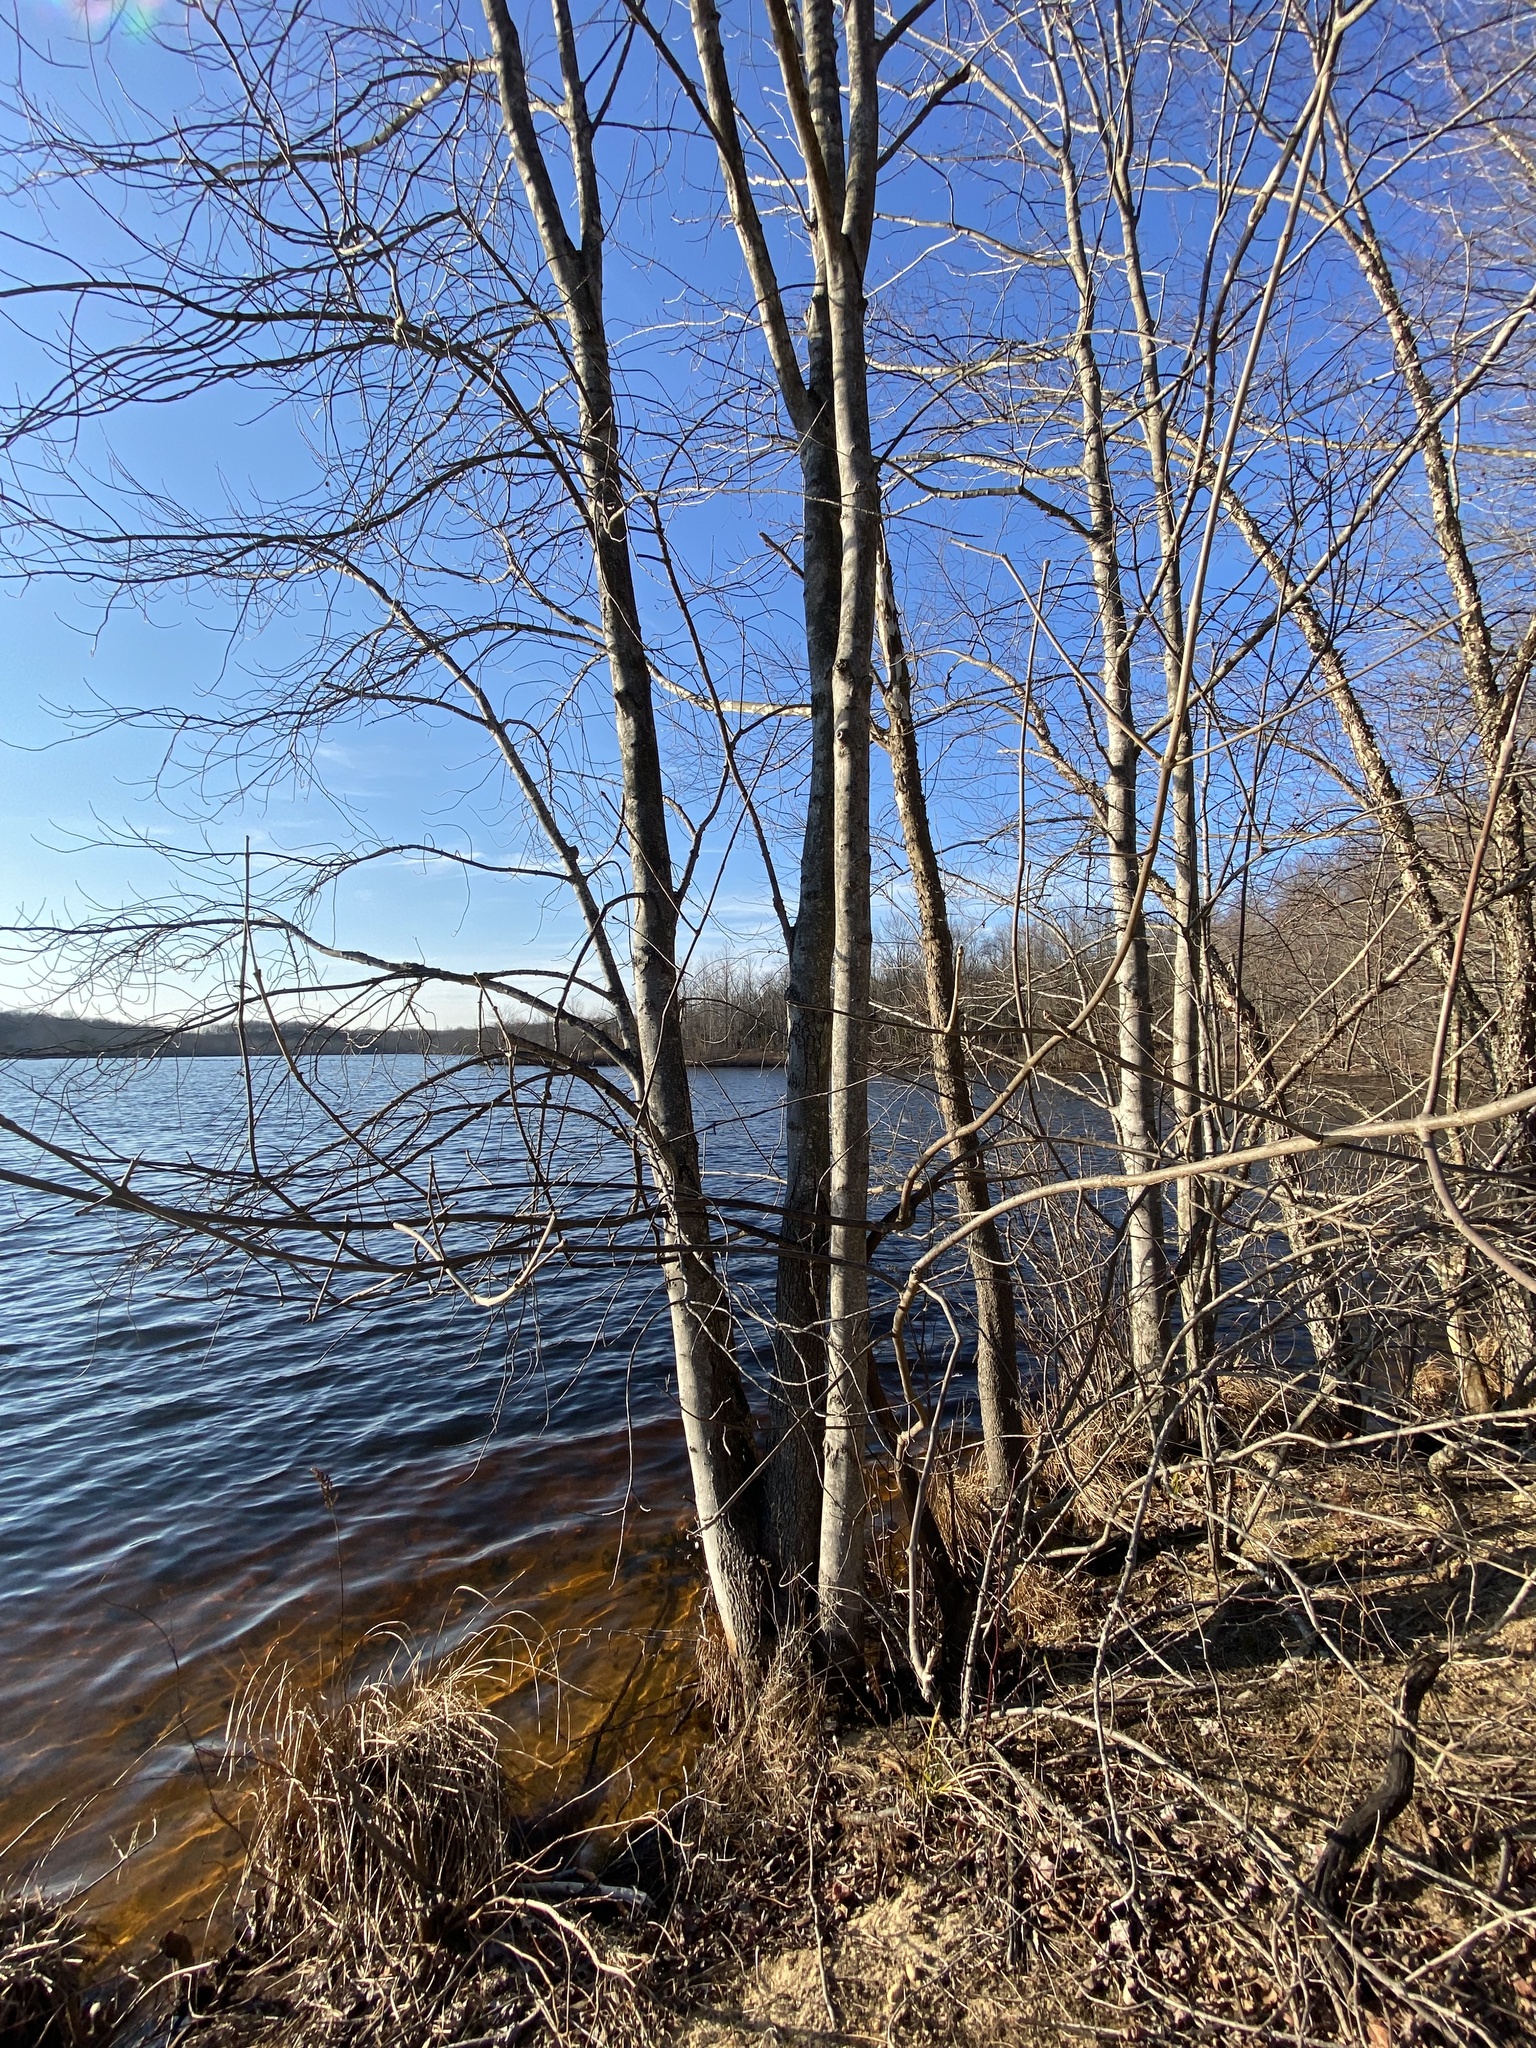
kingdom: Plantae
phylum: Tracheophyta
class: Magnoliopsida
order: Sapindales
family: Sapindaceae
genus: Acer
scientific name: Acer rubrum
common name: Red maple
